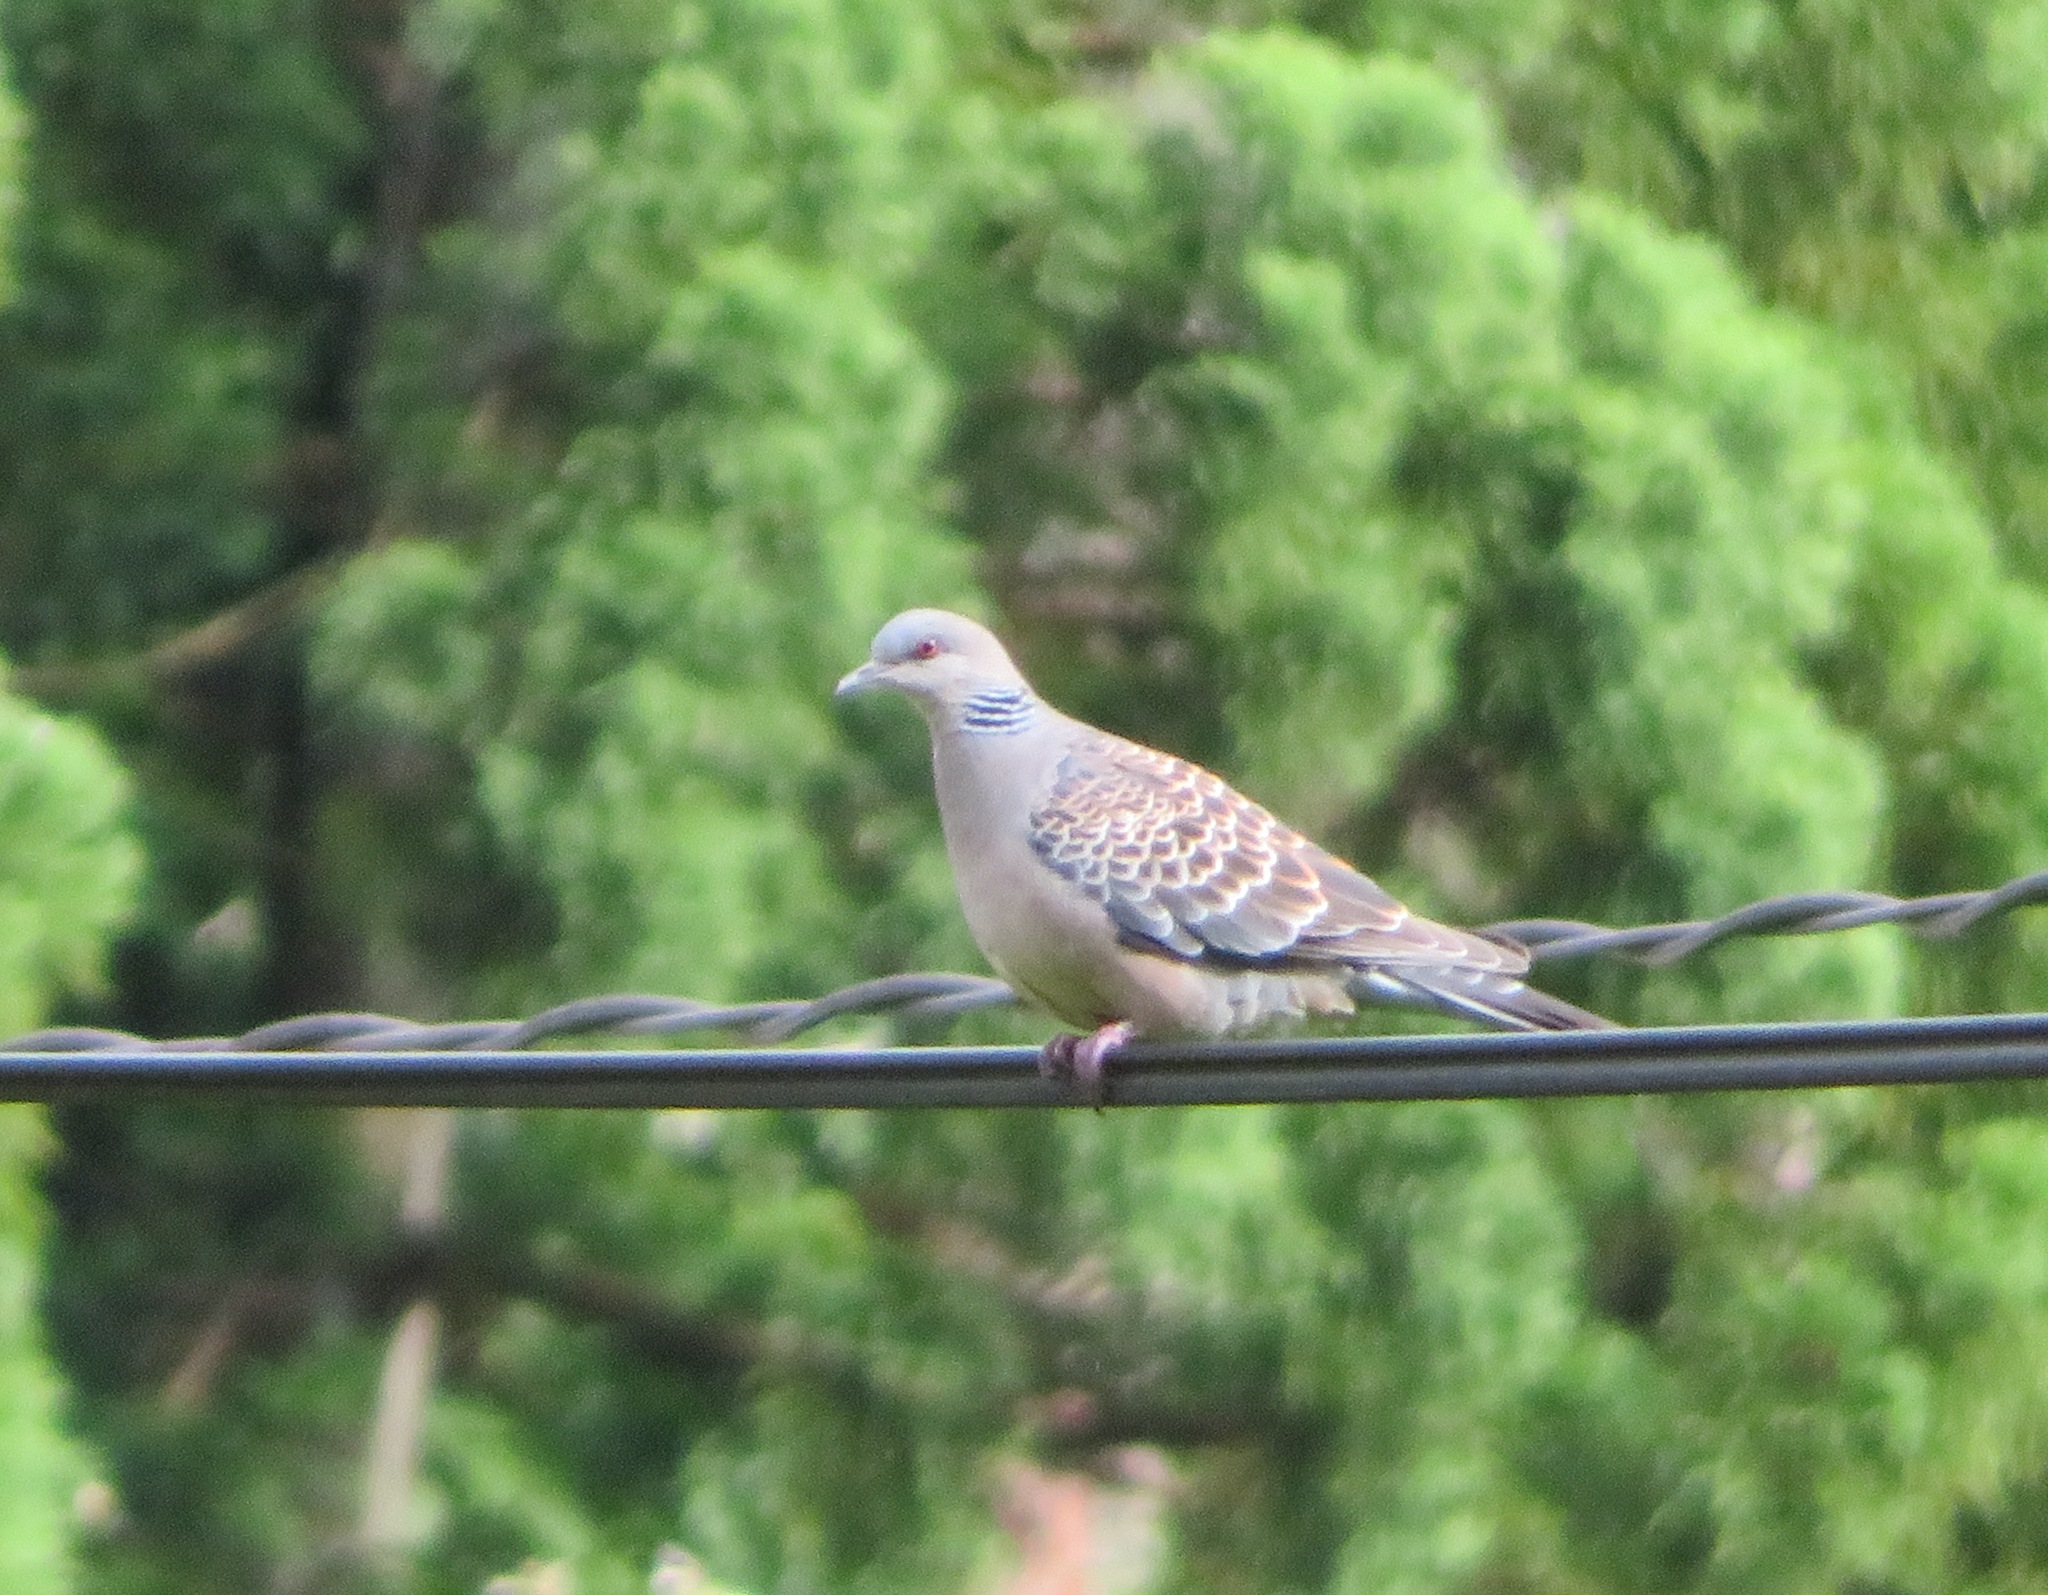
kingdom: Animalia
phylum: Chordata
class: Aves
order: Columbiformes
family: Columbidae
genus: Streptopelia
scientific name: Streptopelia orientalis
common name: Oriental turtle dove
